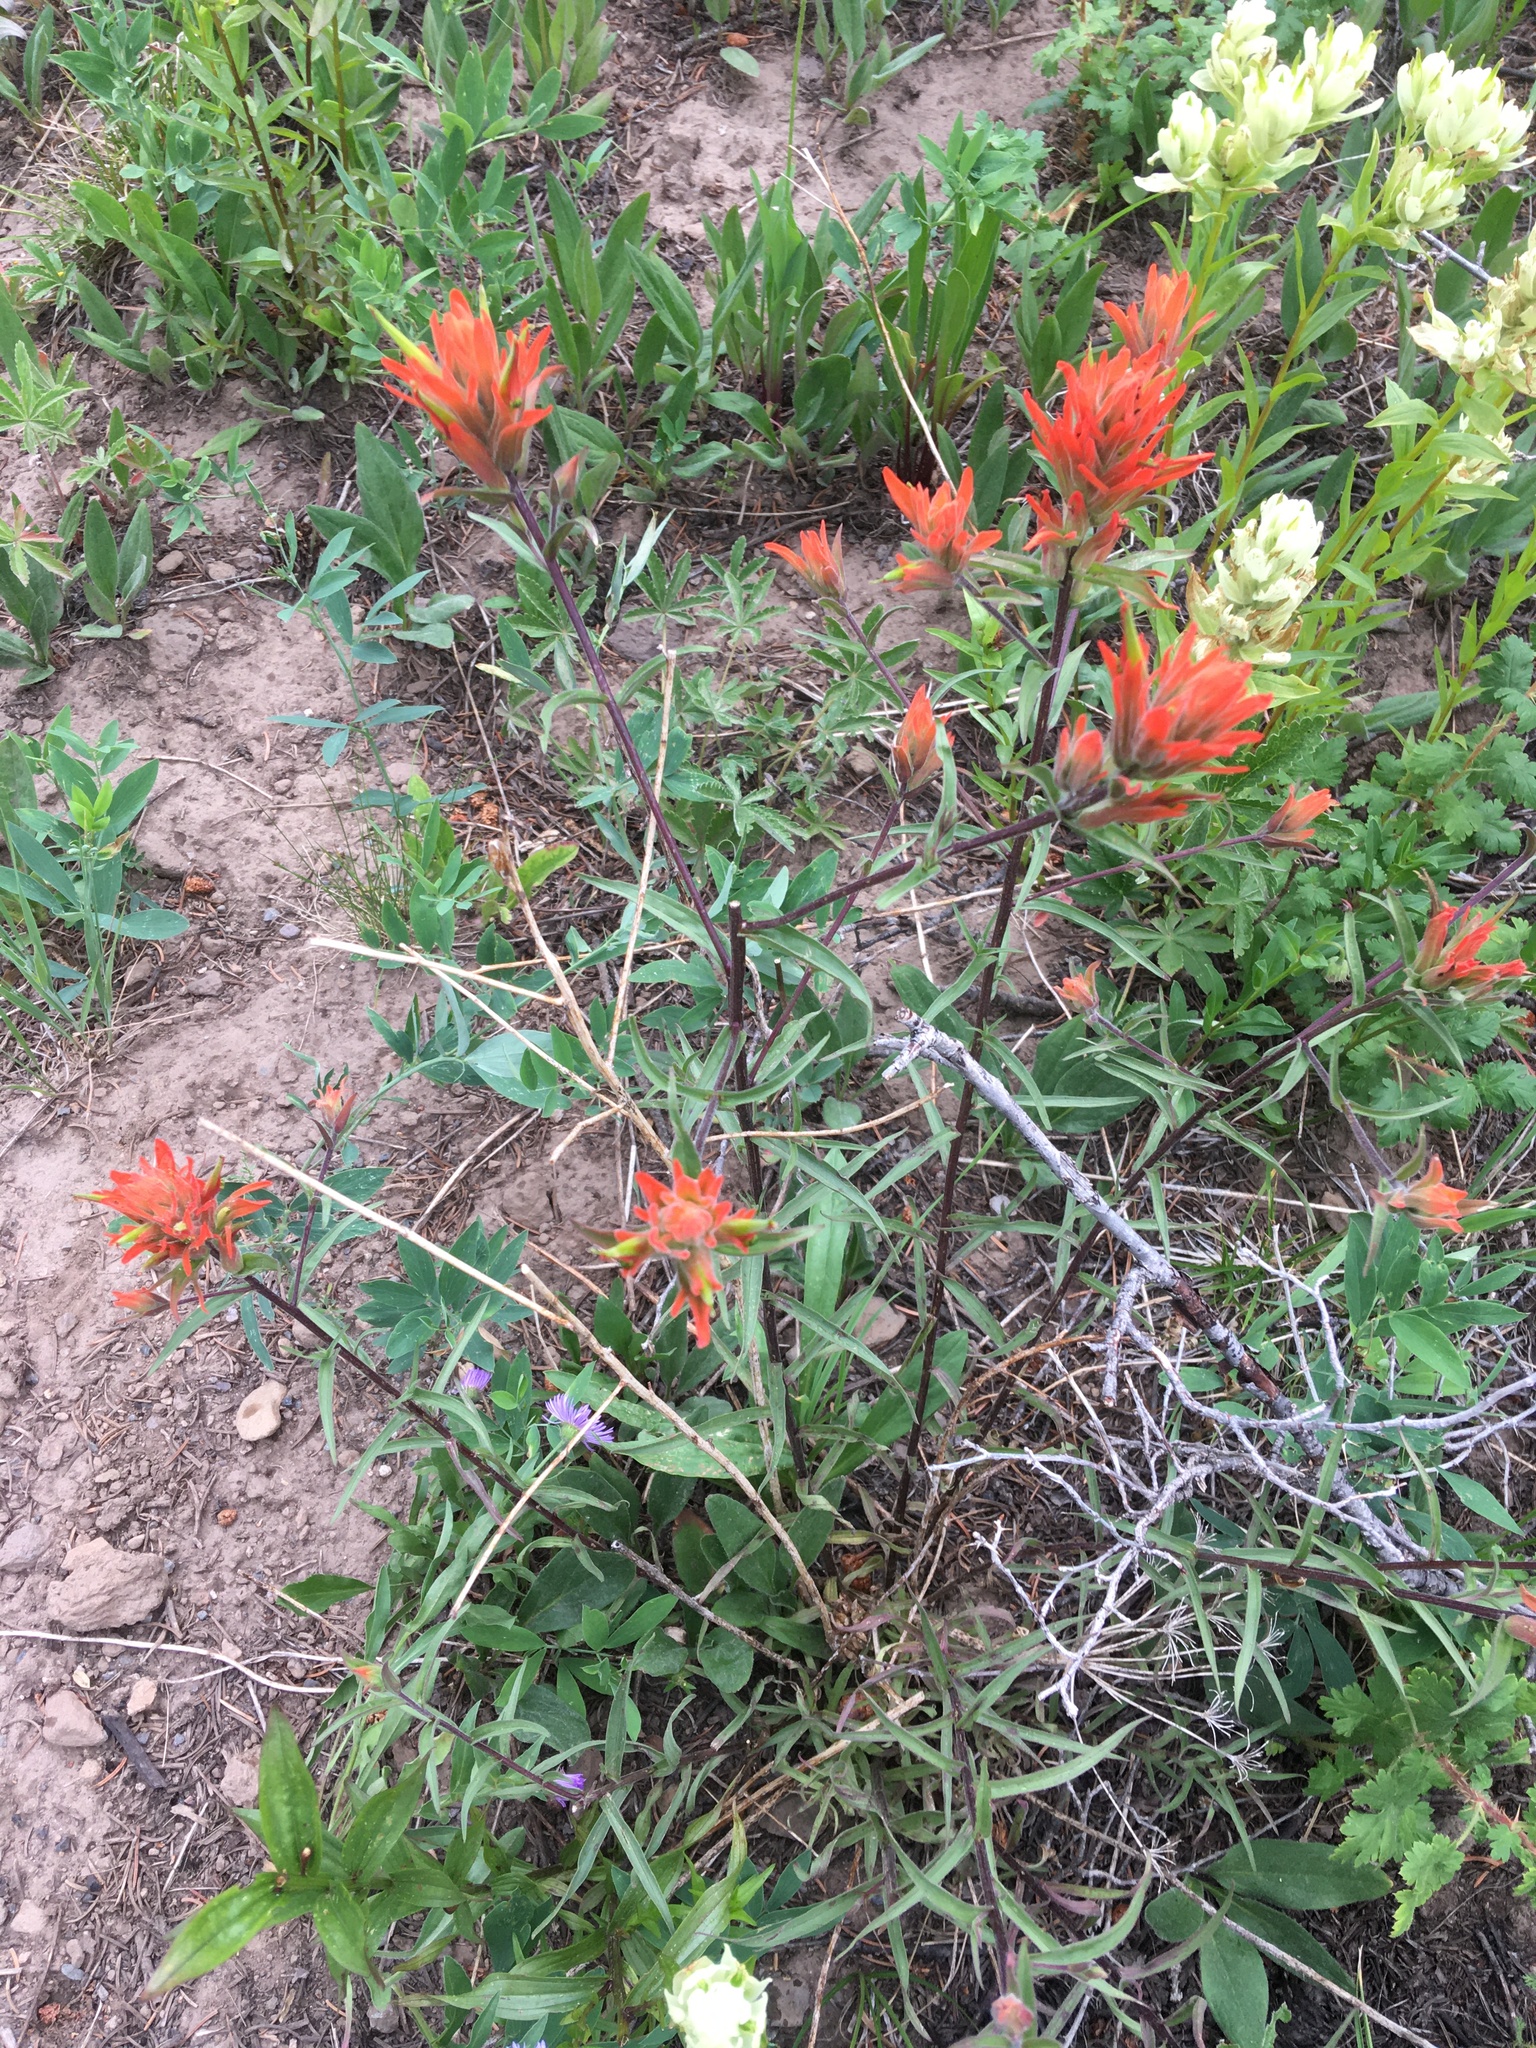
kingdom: Plantae
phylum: Tracheophyta
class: Magnoliopsida
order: Lamiales
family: Orobanchaceae
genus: Castilleja
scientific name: Castilleja miniata
